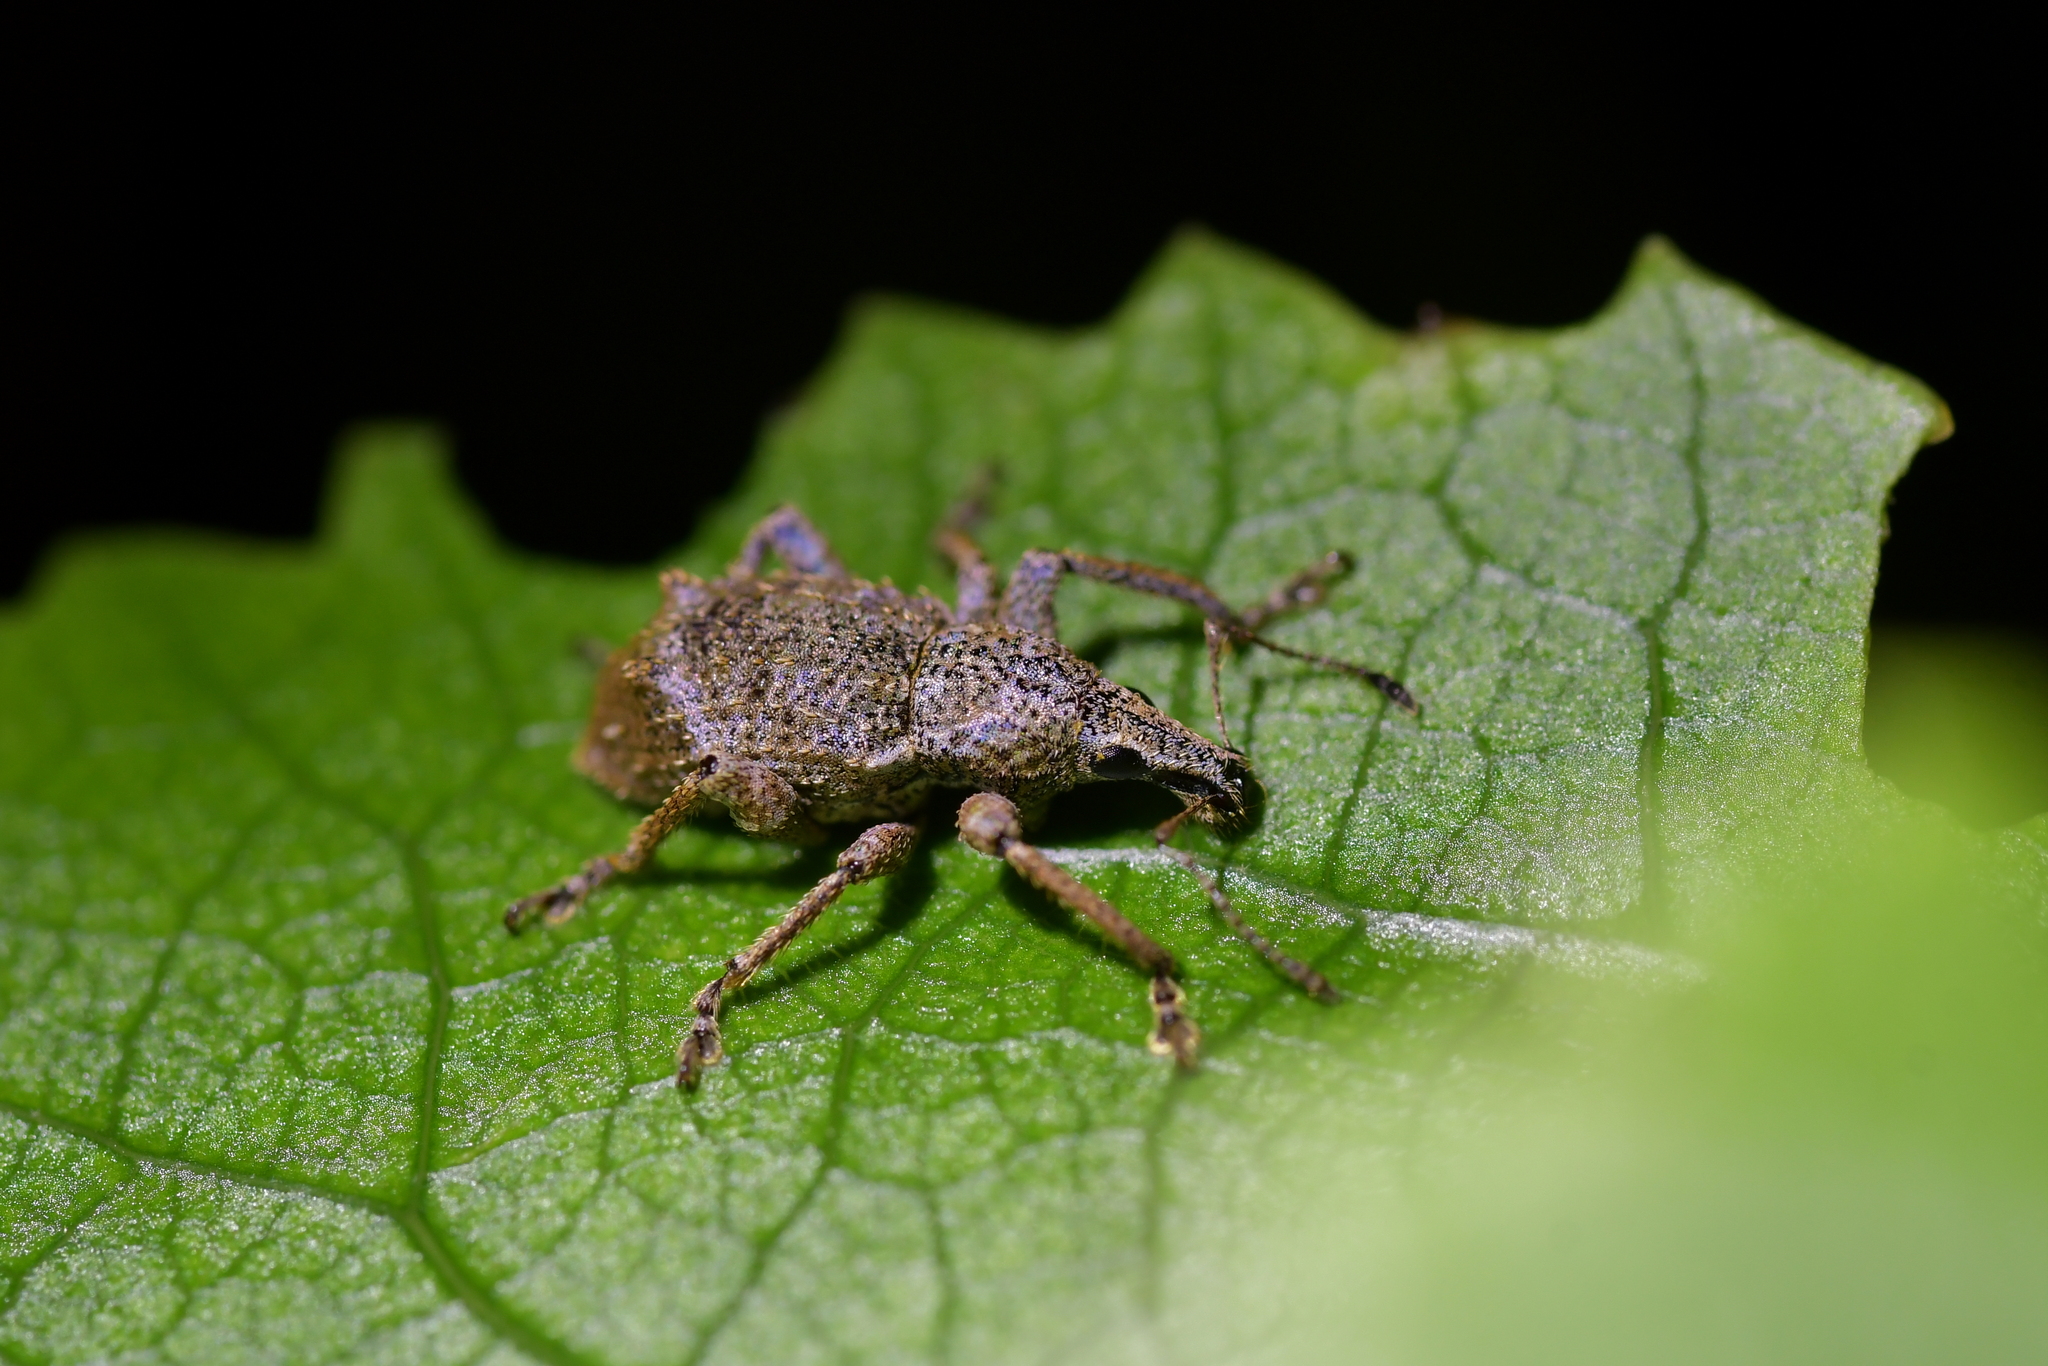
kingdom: Animalia
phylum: Arthropoda
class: Insecta
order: Coleoptera
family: Curculionidae
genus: Catoptes
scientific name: Catoptes binodis
